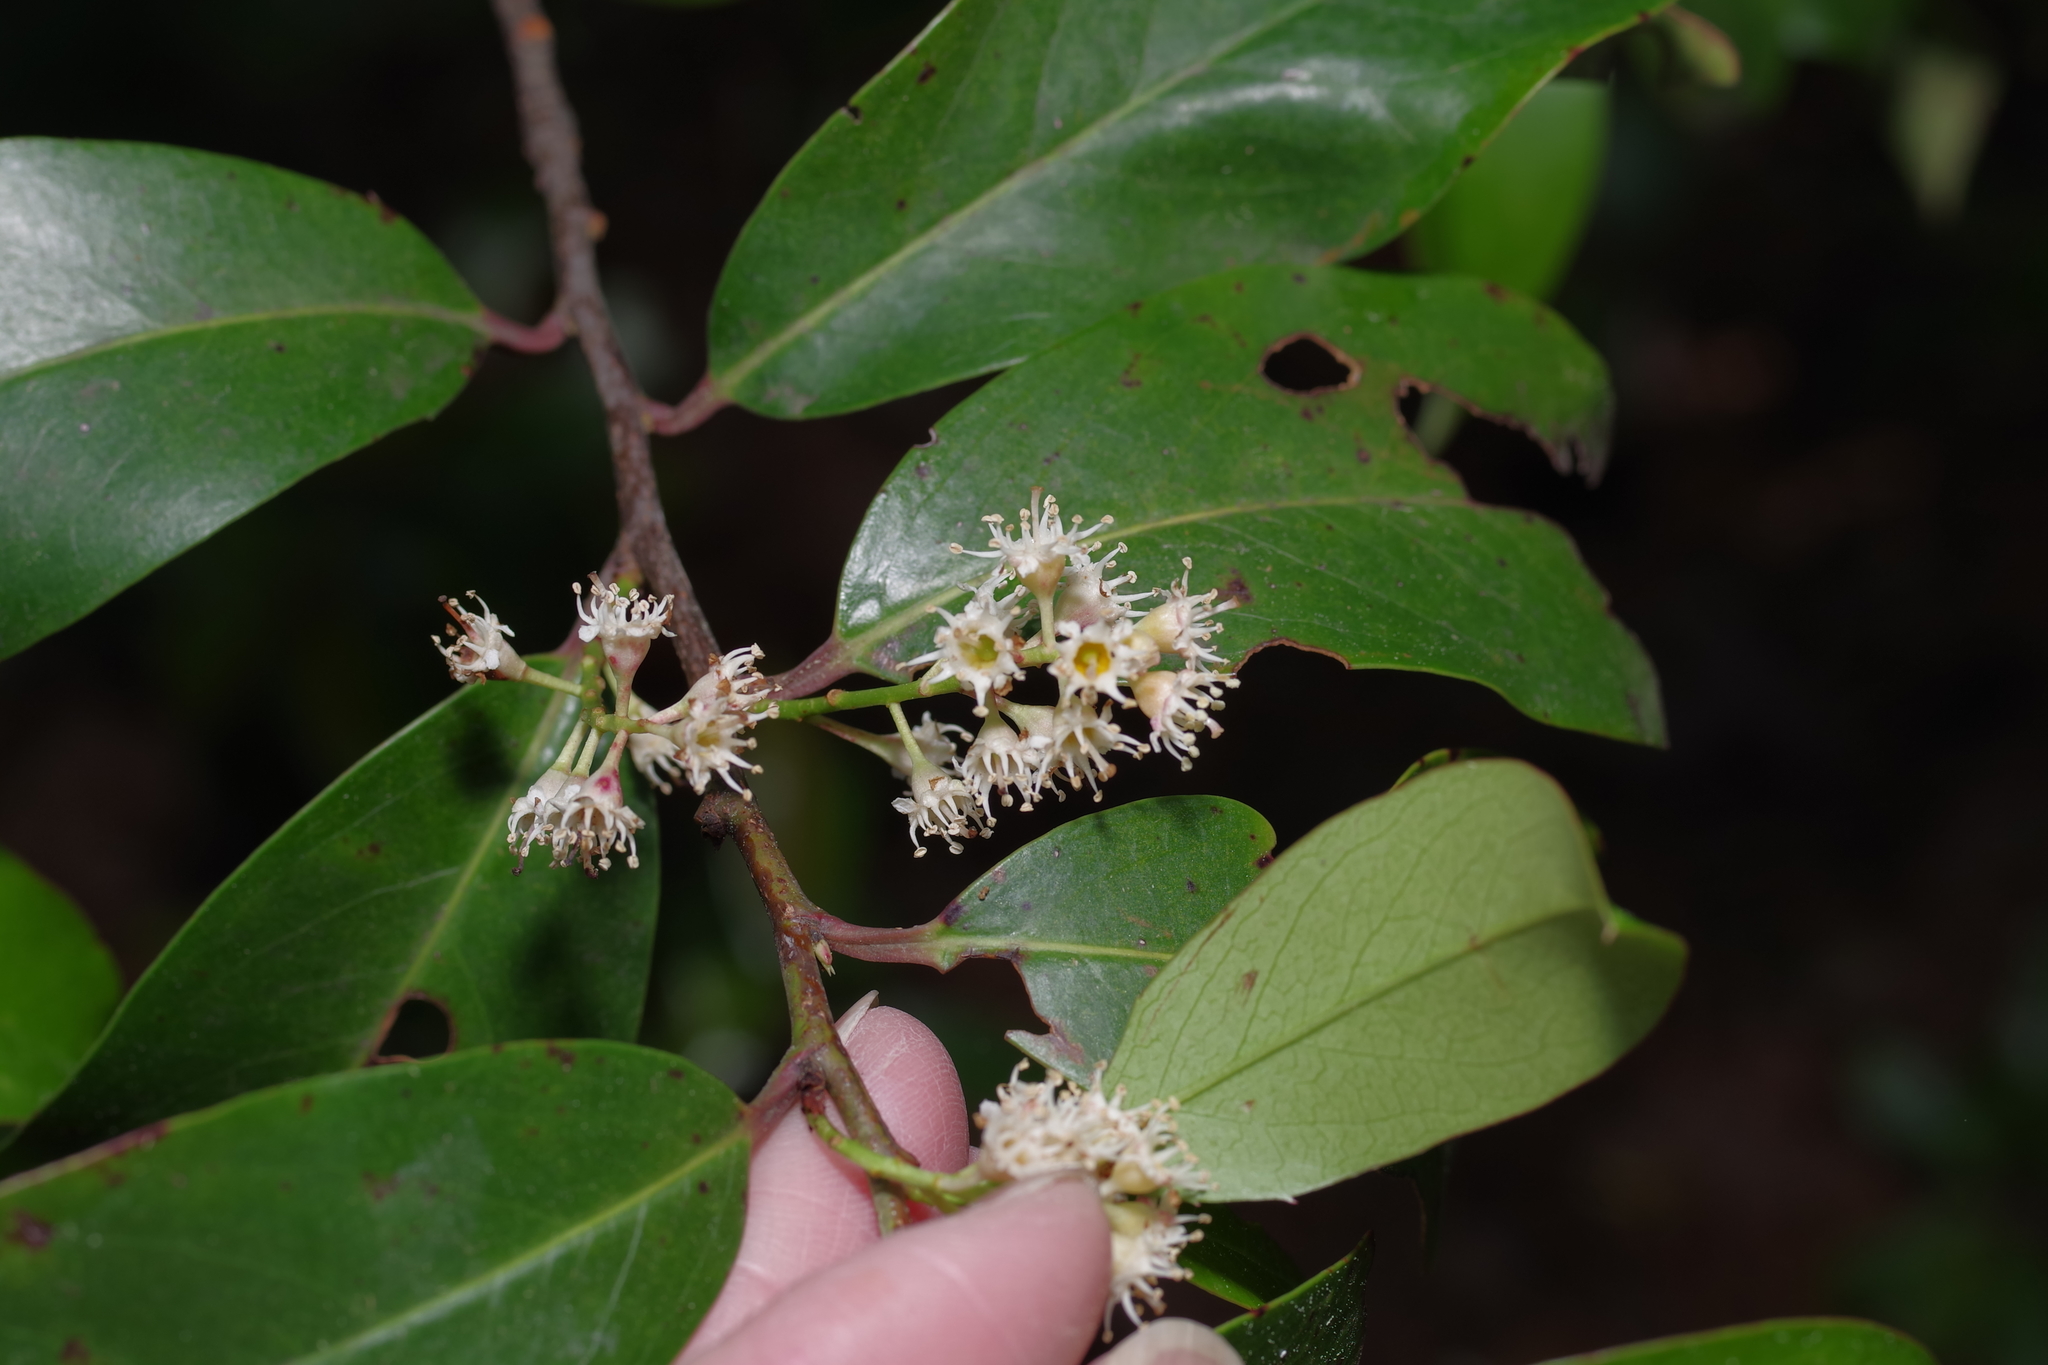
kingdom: Plantae
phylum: Tracheophyta
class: Magnoliopsida
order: Rosales
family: Rosaceae
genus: Prunus
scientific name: Prunus caroliniana
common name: Carolina laurel cherry
